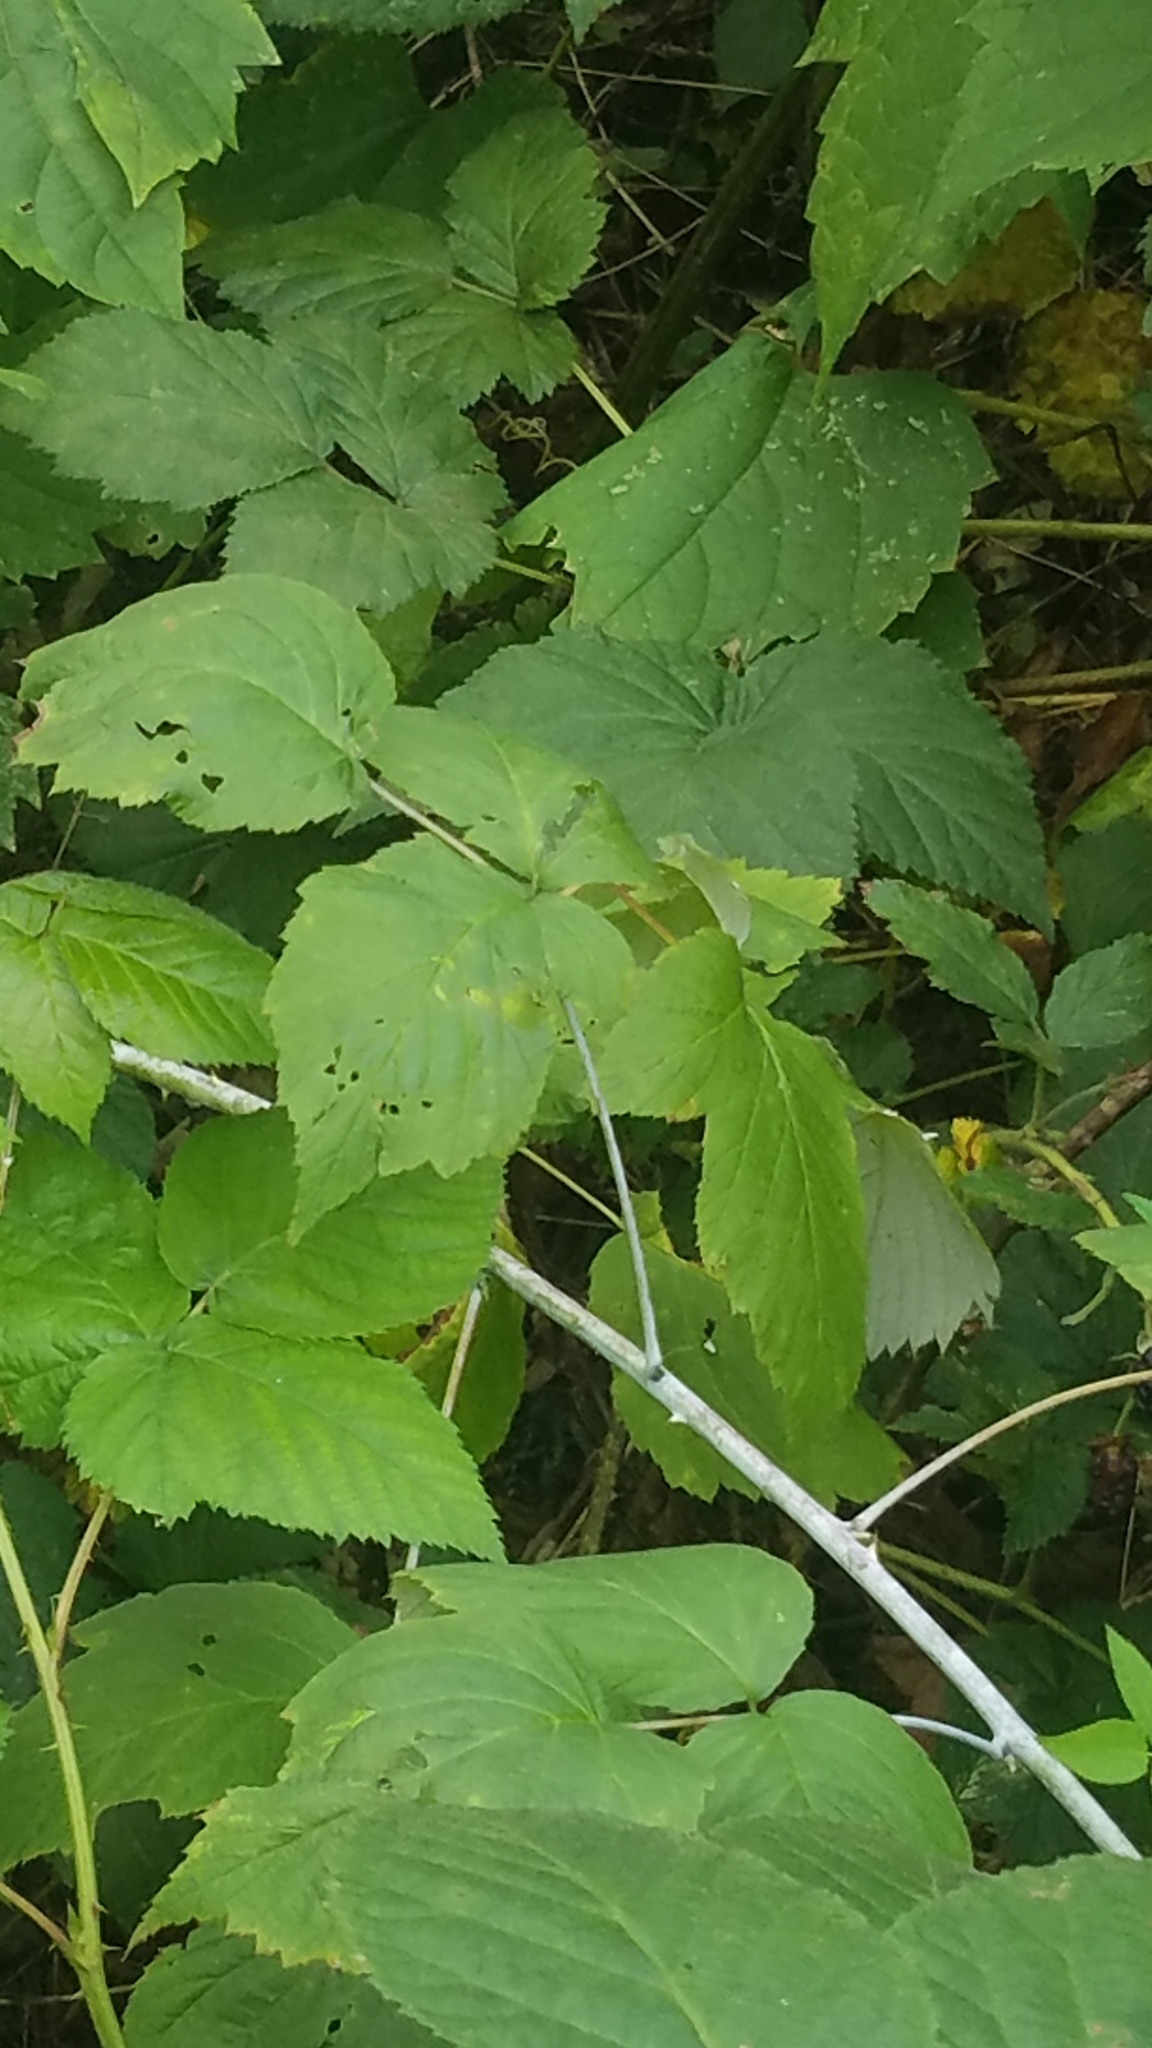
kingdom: Plantae
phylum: Tracheophyta
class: Magnoliopsida
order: Rosales
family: Rosaceae
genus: Rubus
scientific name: Rubus occidentalis
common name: Black raspberry
